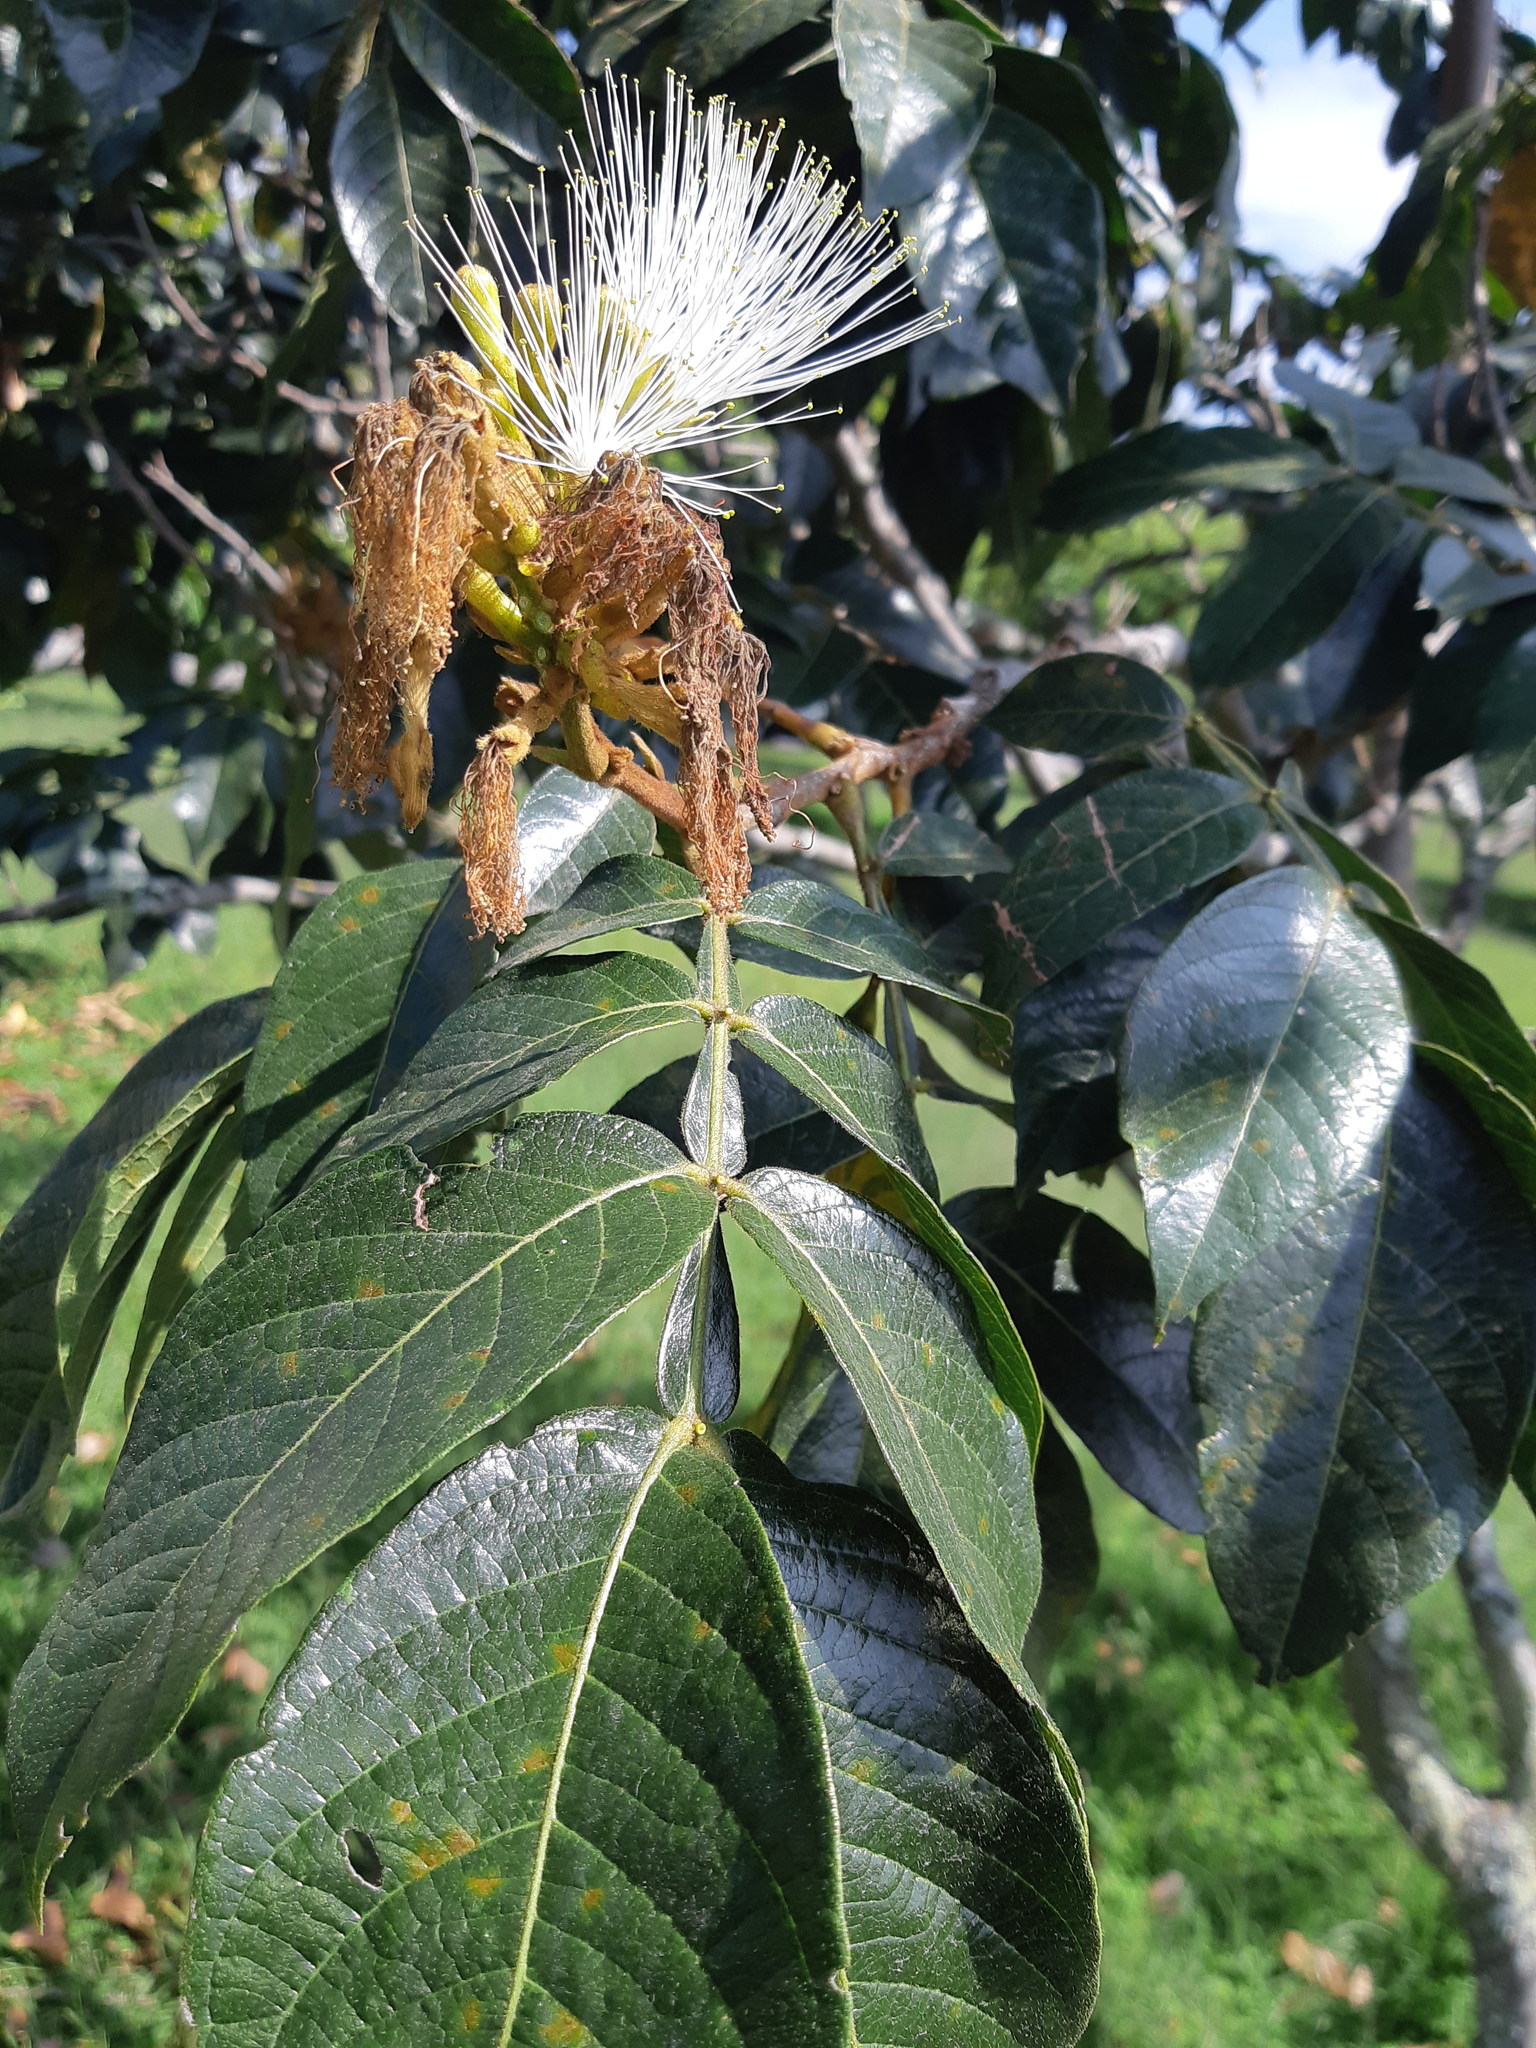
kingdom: Plantae
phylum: Tracheophyta
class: Magnoliopsida
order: Fabales
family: Fabaceae
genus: Inga
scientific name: Inga insignis
